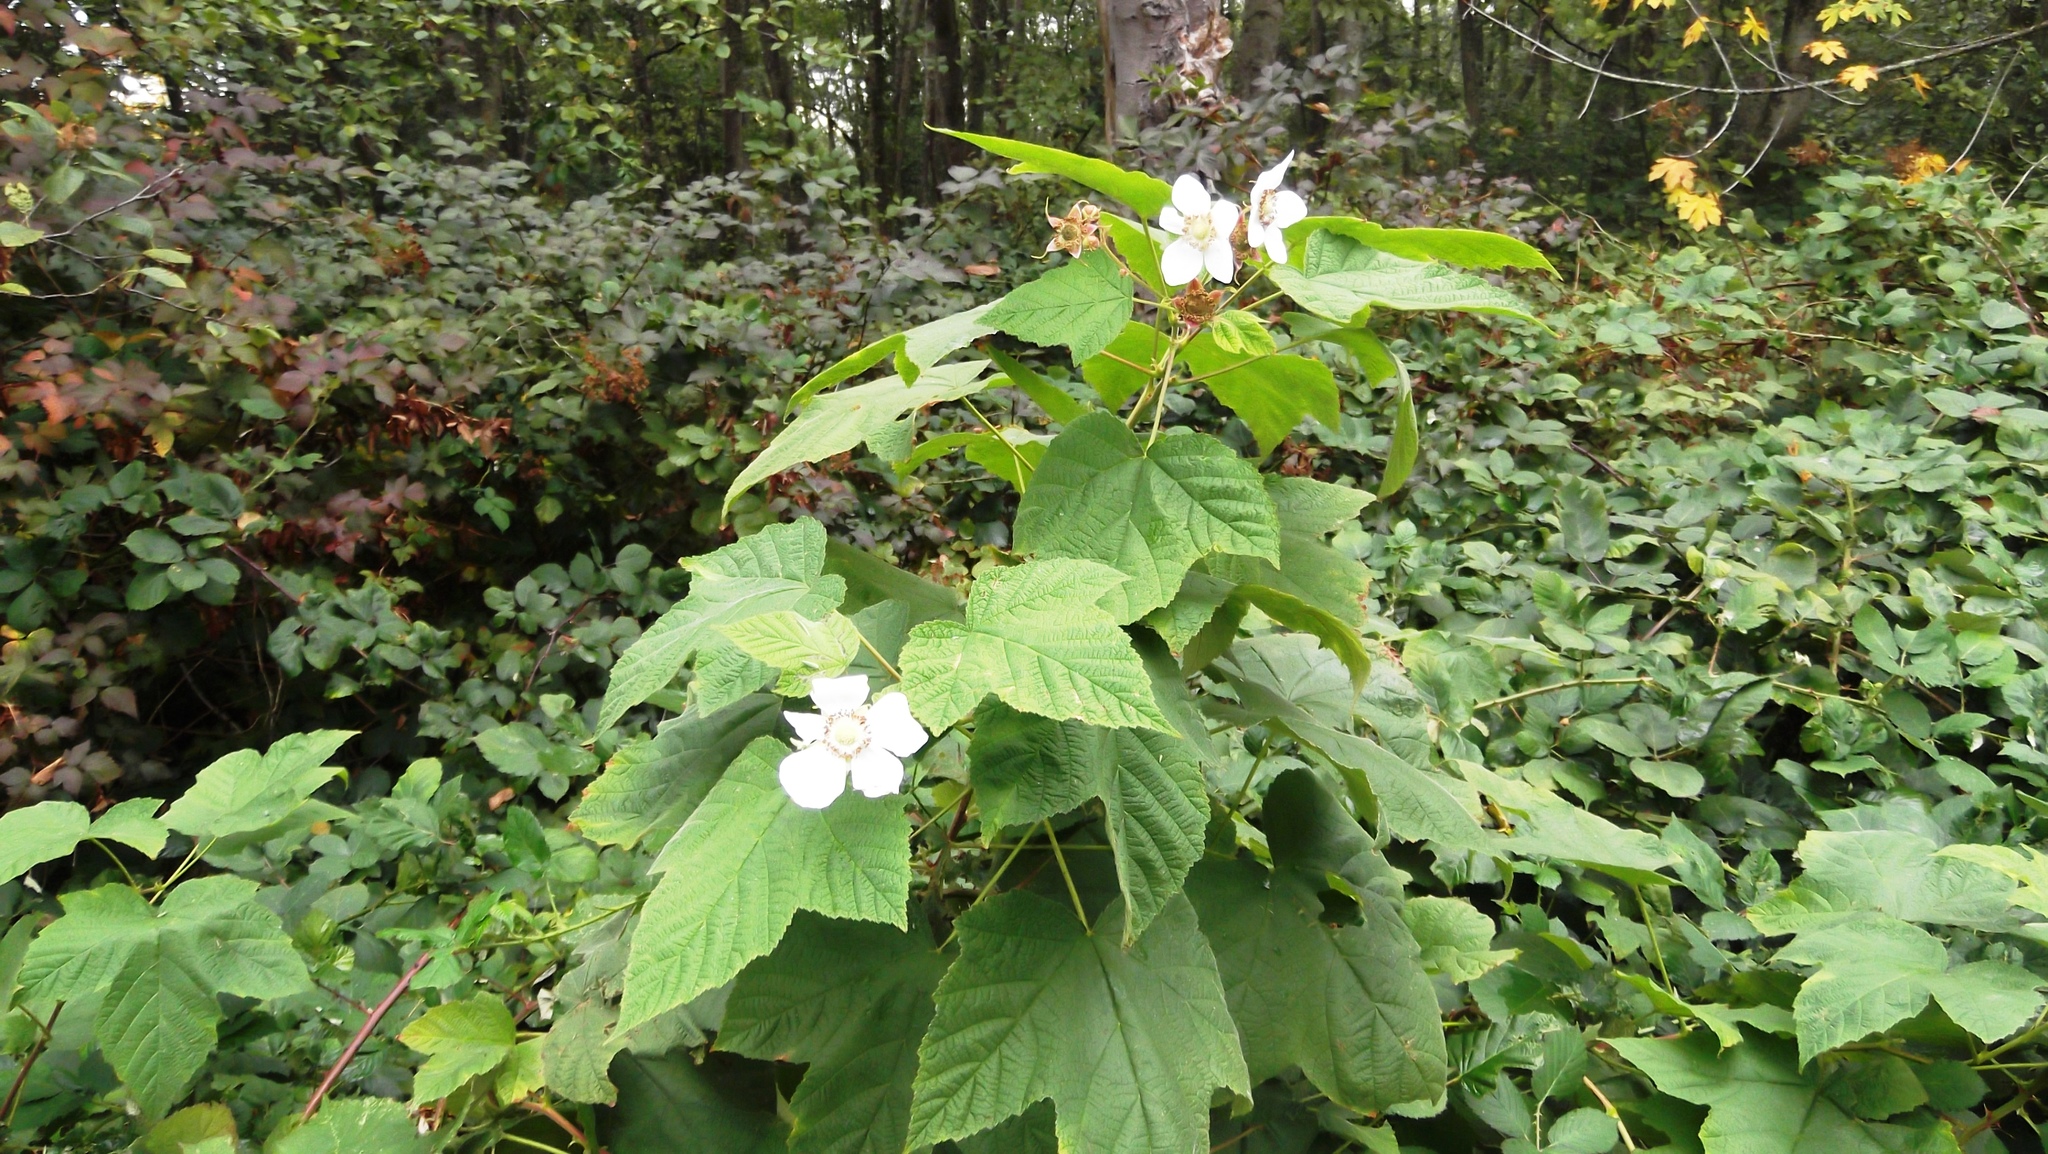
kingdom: Plantae
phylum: Tracheophyta
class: Magnoliopsida
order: Rosales
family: Rosaceae
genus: Rubus
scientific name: Rubus parviflorus
